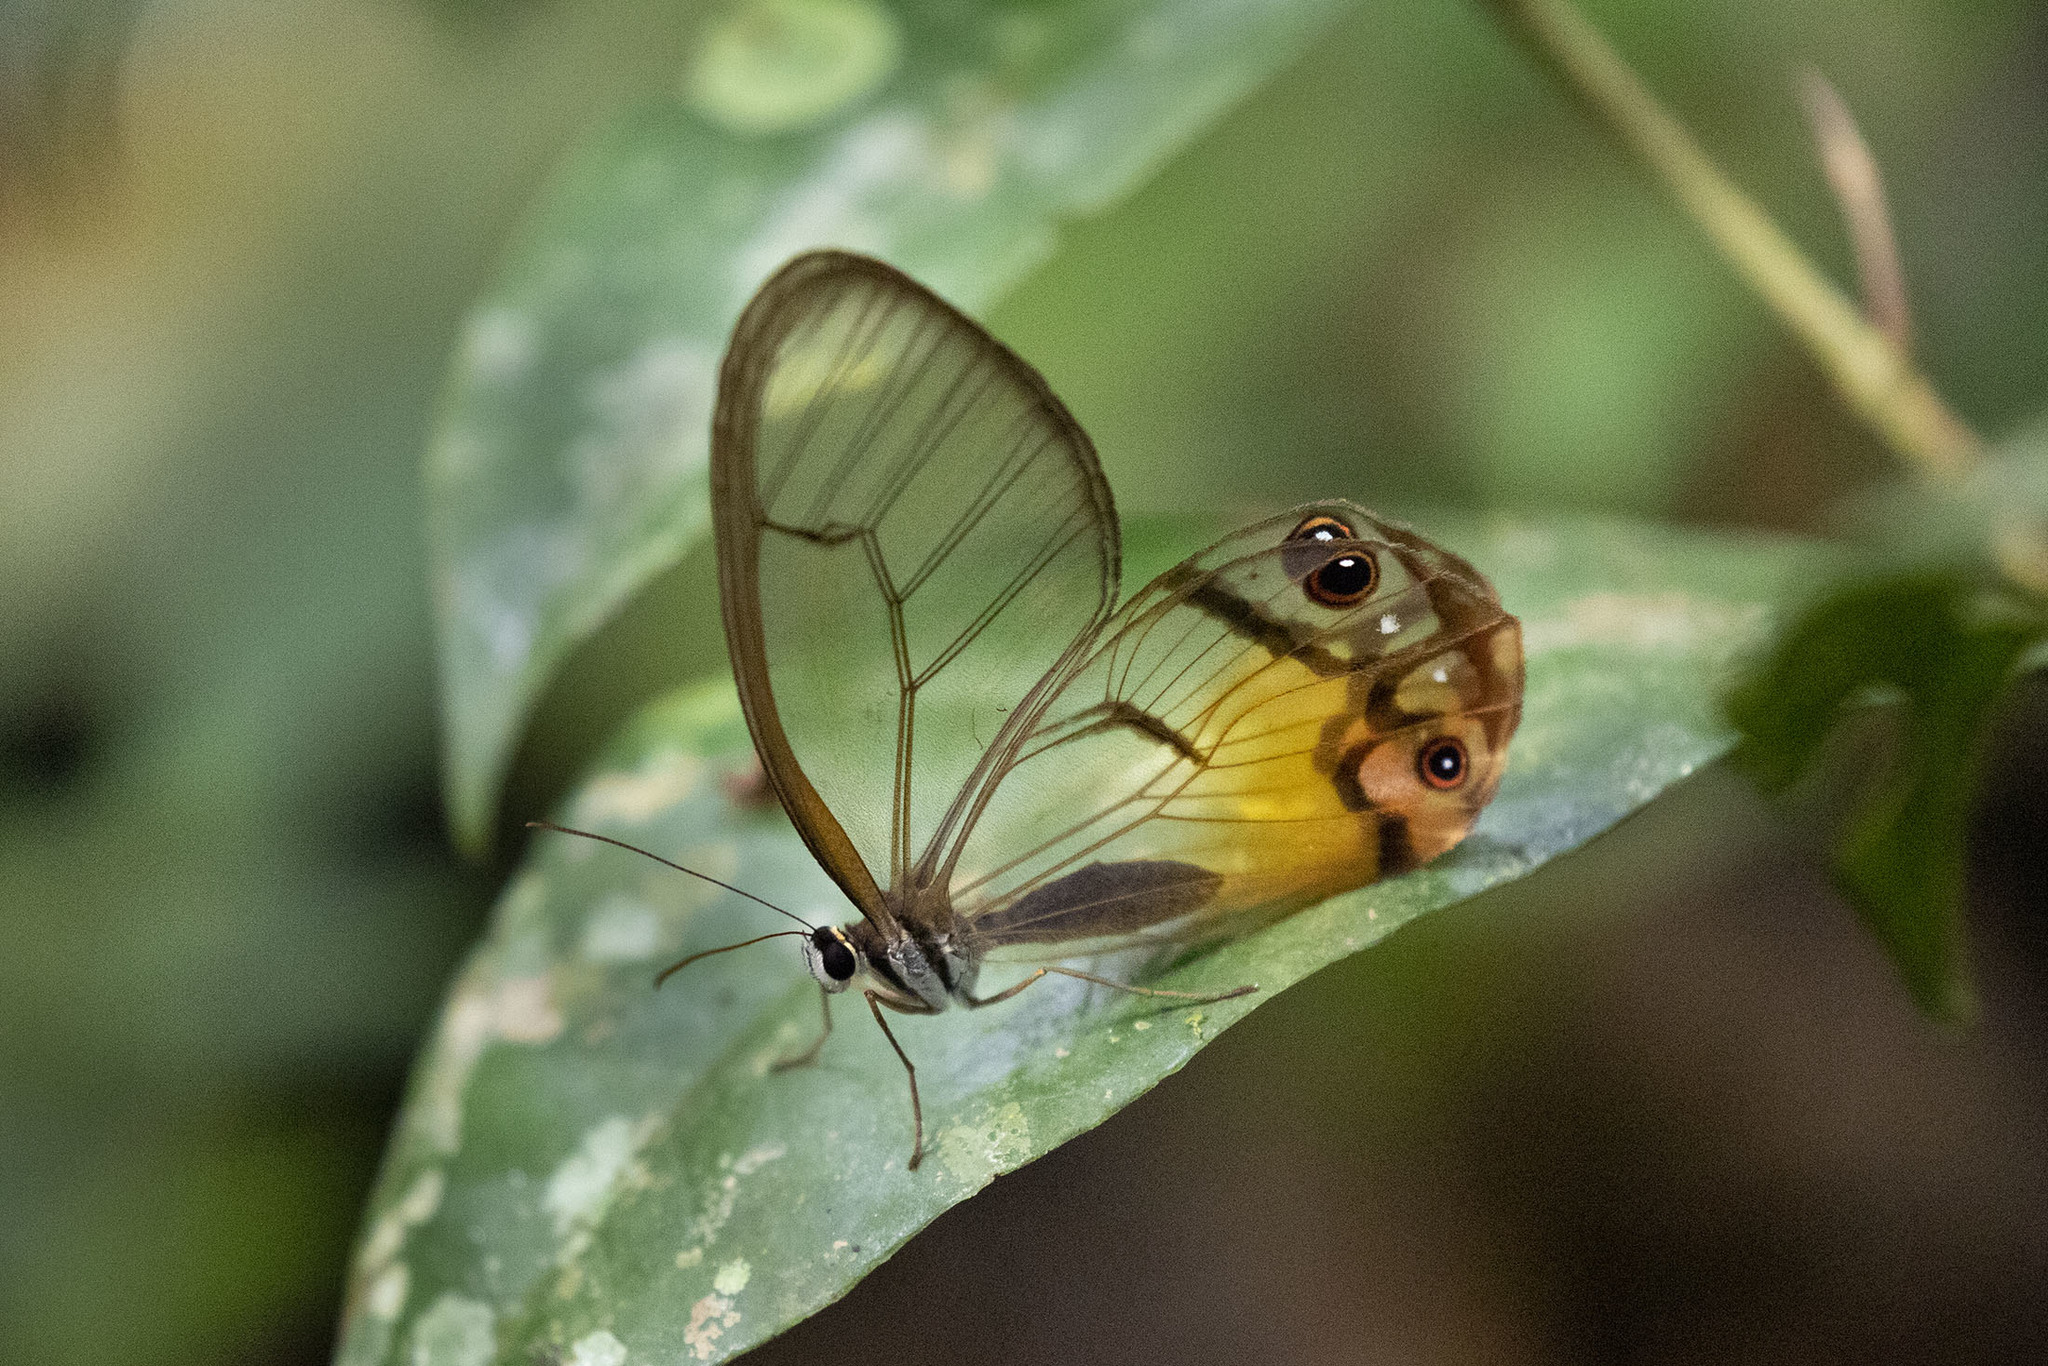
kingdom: Animalia
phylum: Arthropoda
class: Insecta
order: Lepidoptera
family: Nymphalidae
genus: Haetera
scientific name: Haetera piera
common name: Amber phantom
